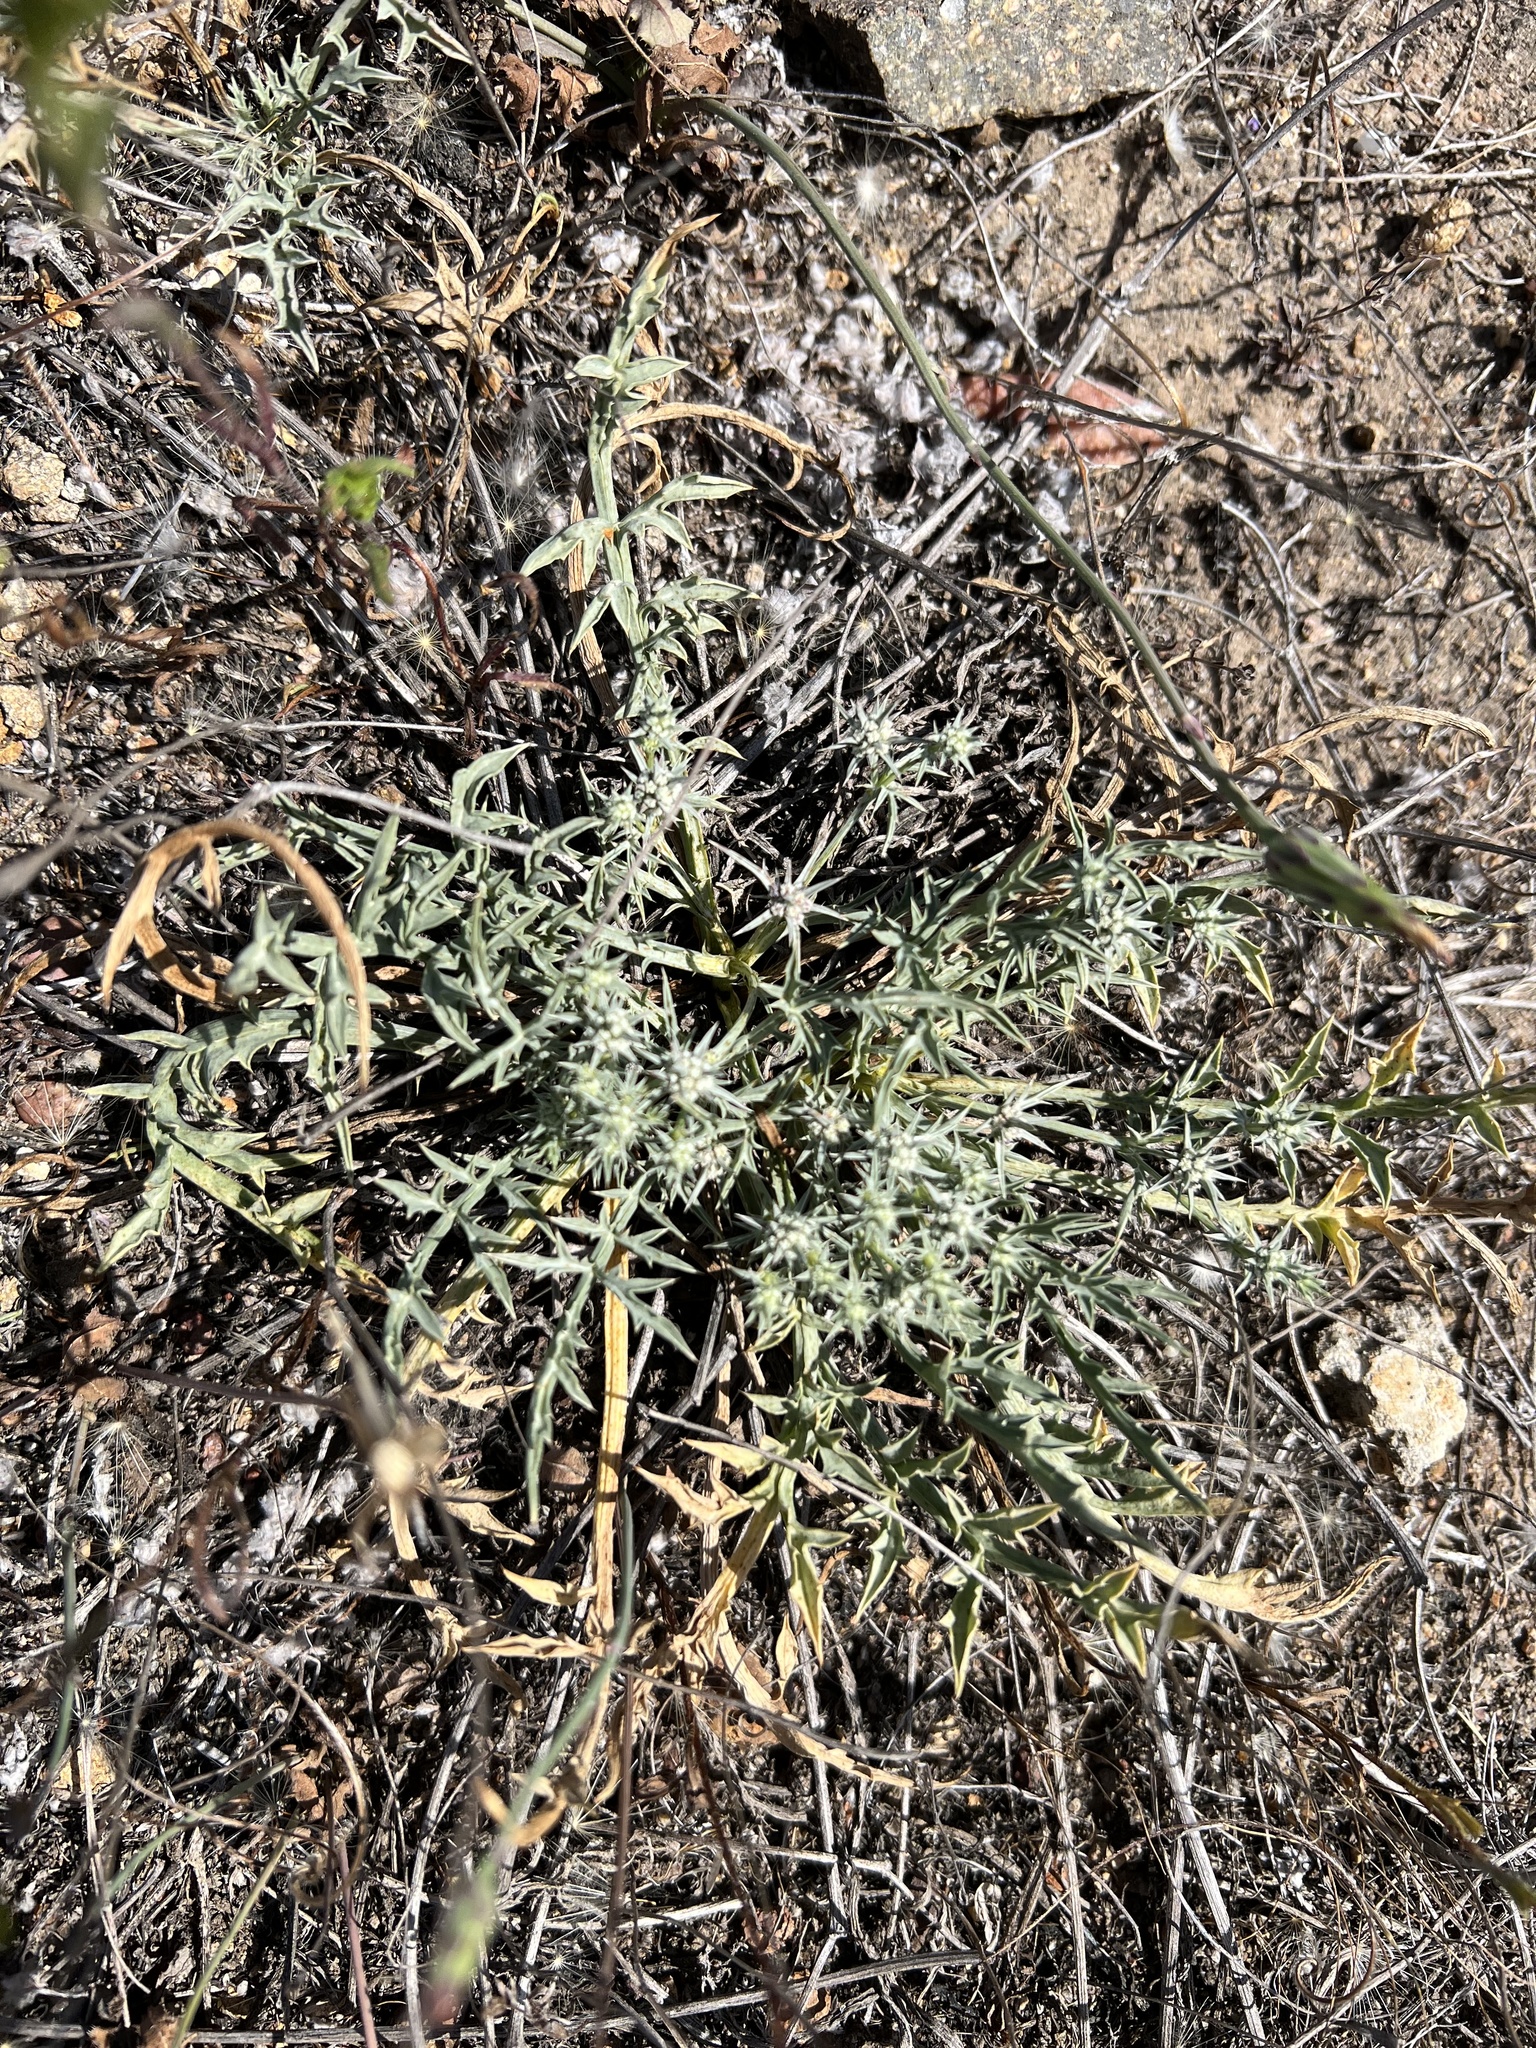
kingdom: Plantae
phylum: Tracheophyta
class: Magnoliopsida
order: Apiales
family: Apiaceae
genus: Eryngium
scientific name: Eryngium aristulatum
